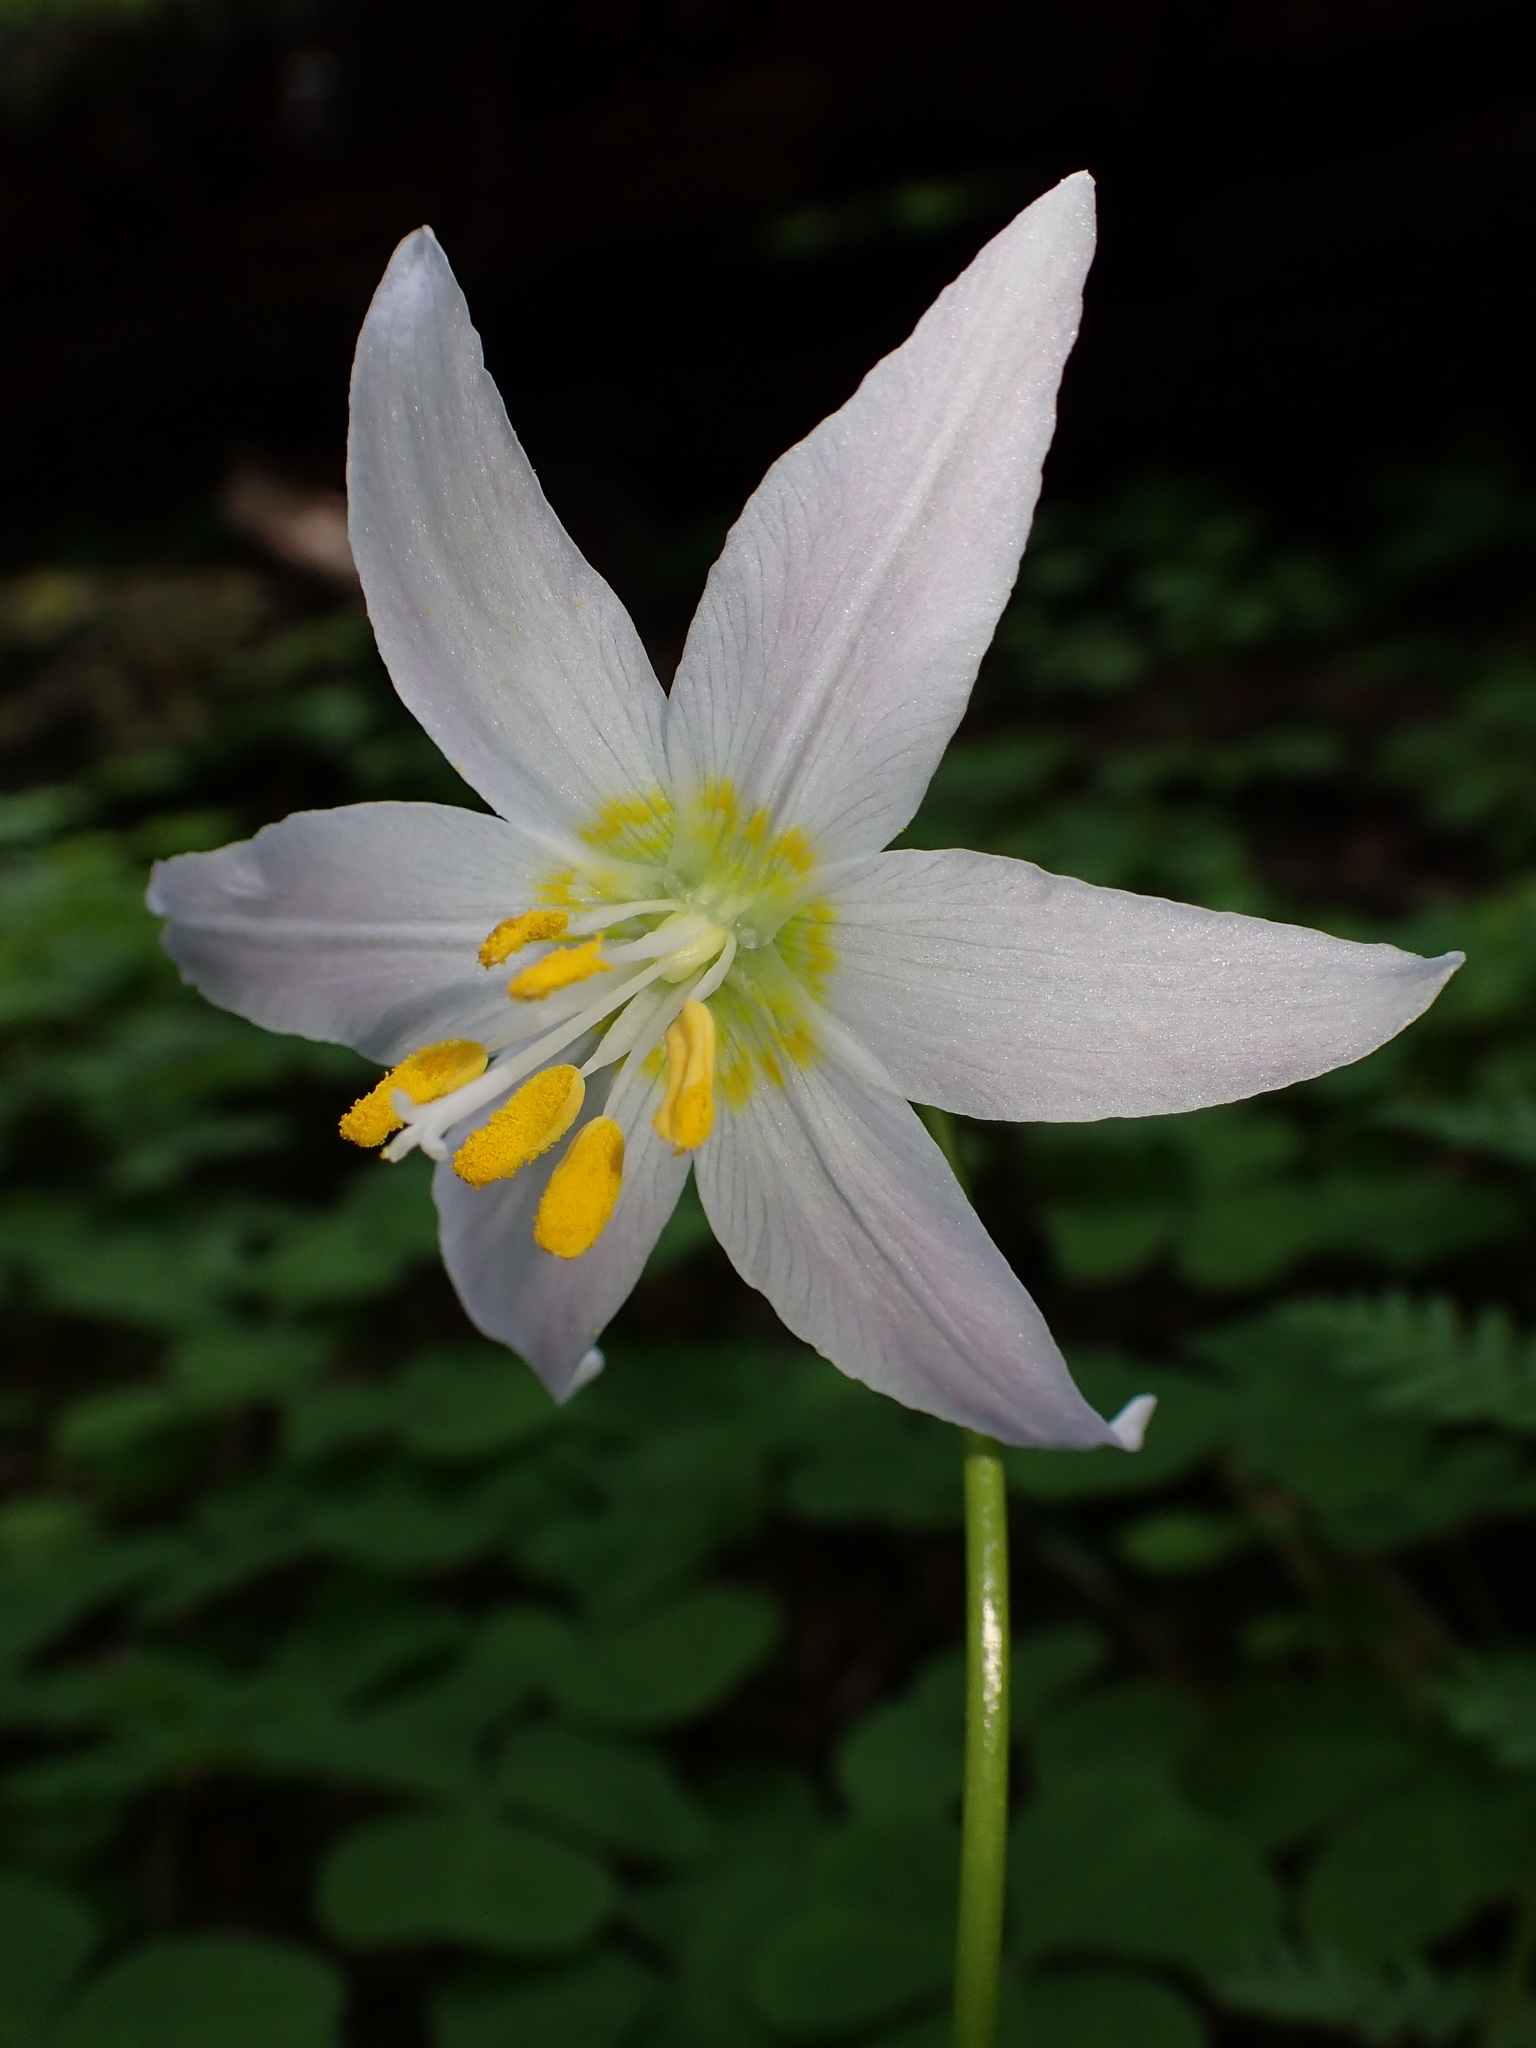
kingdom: Plantae
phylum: Tracheophyta
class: Liliopsida
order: Liliales
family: Liliaceae
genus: Erythronium
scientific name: Erythronium quinaultense
